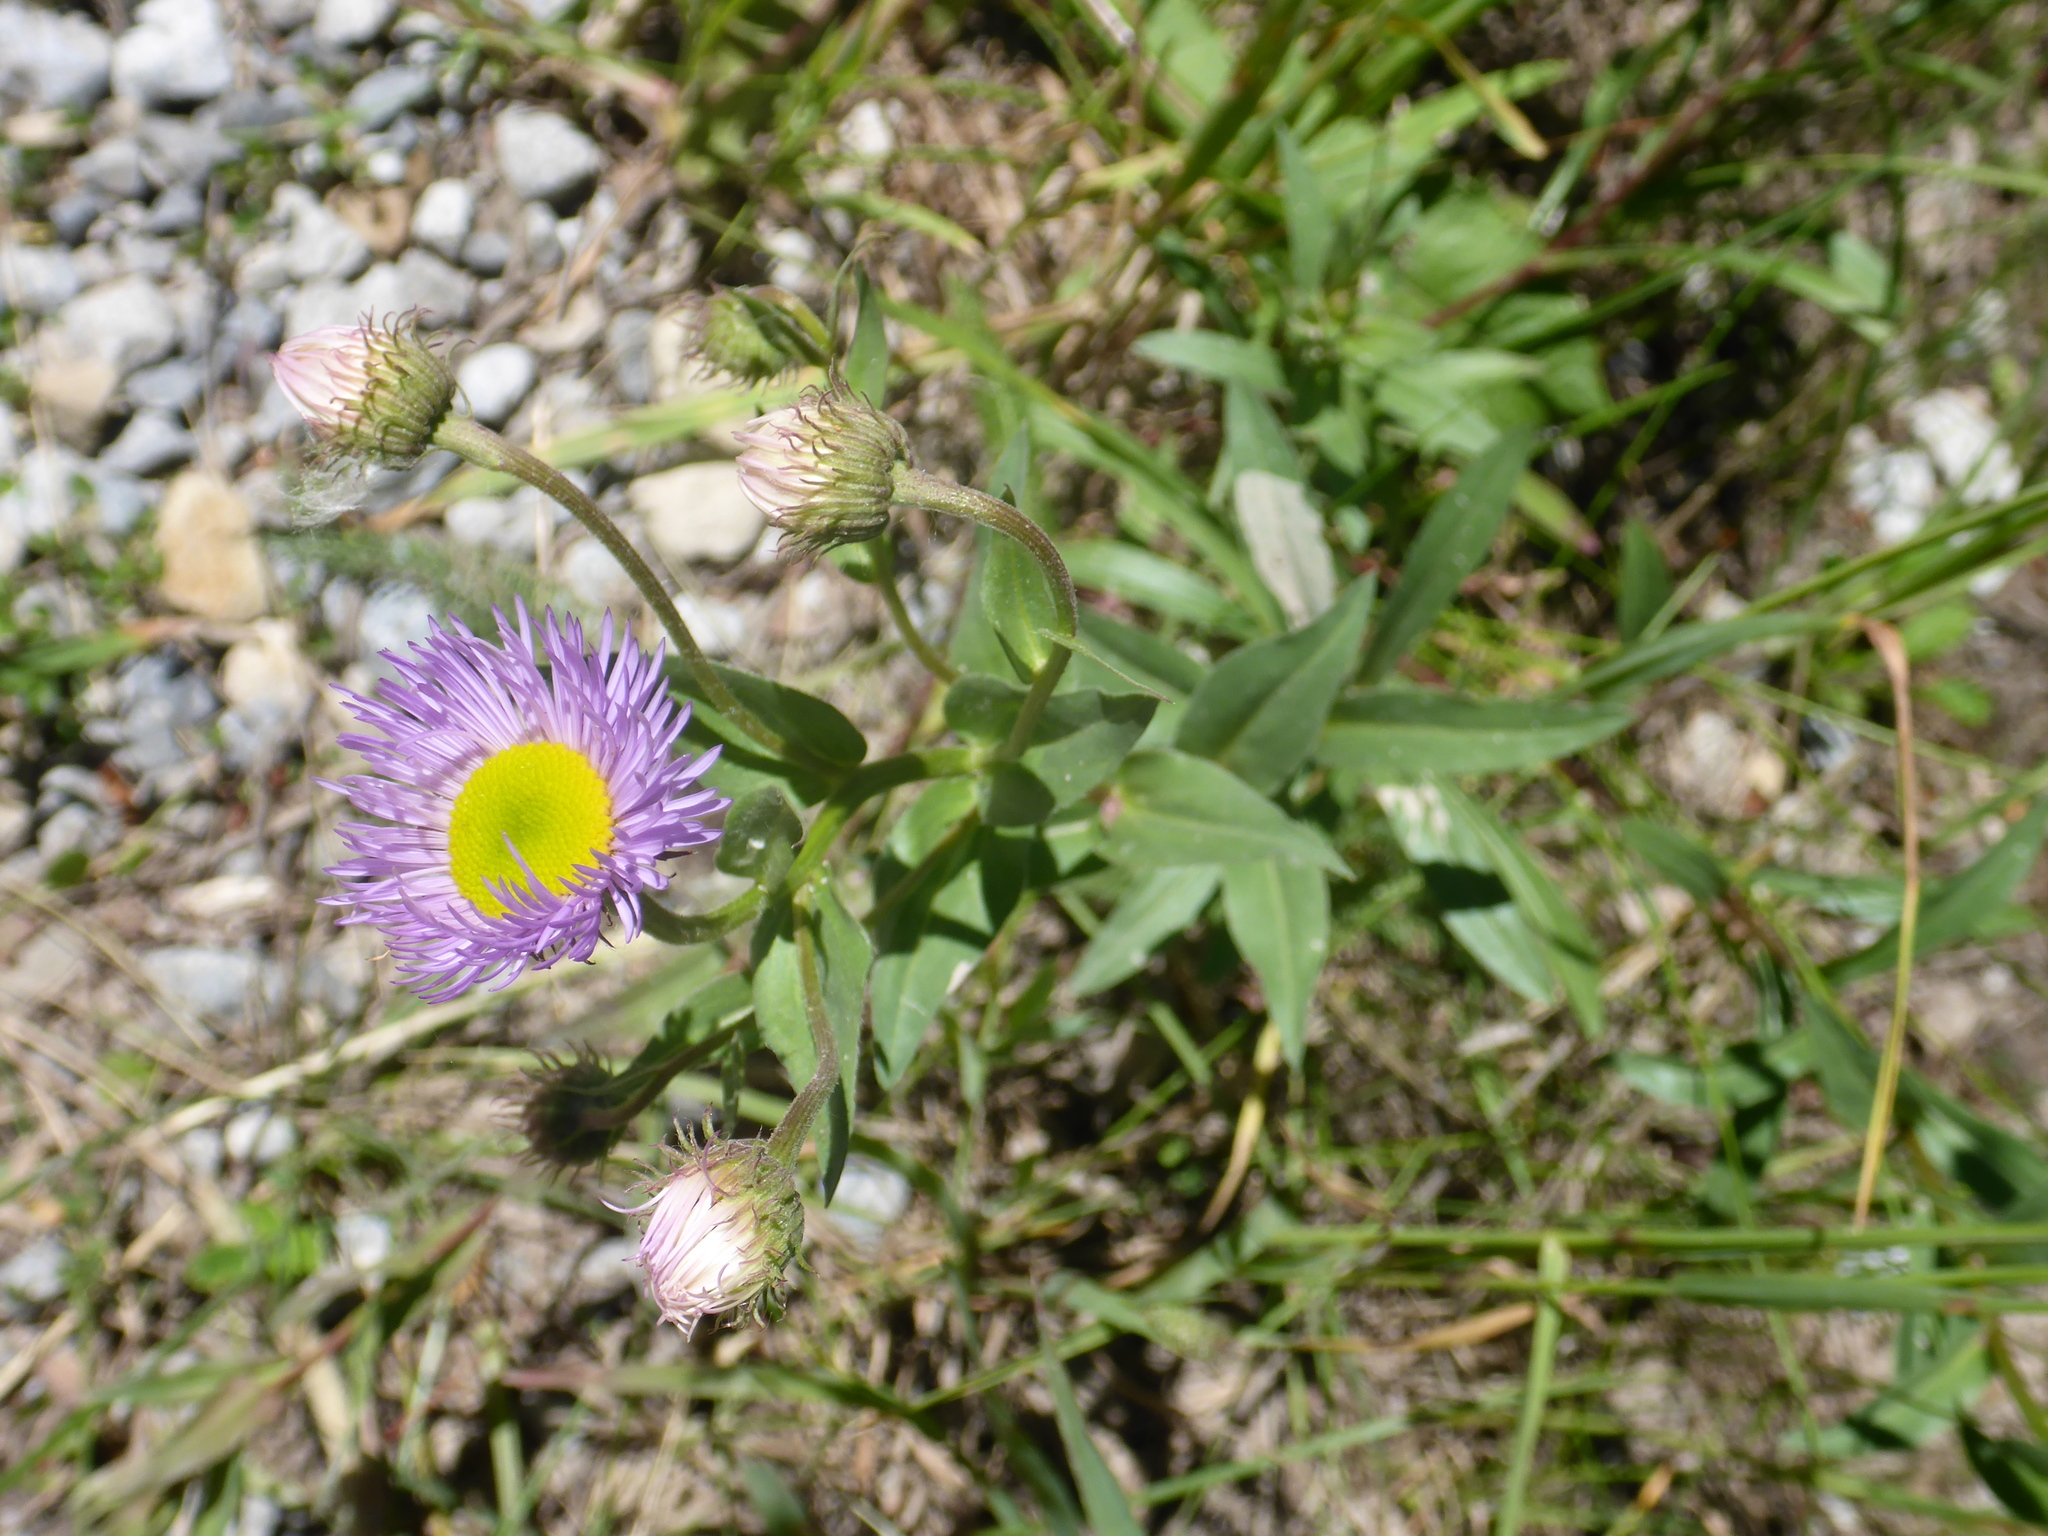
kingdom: Plantae
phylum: Tracheophyta
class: Magnoliopsida
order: Asterales
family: Asteraceae
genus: Erigeron
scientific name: Erigeron speciosus
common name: Aspen fleabane
